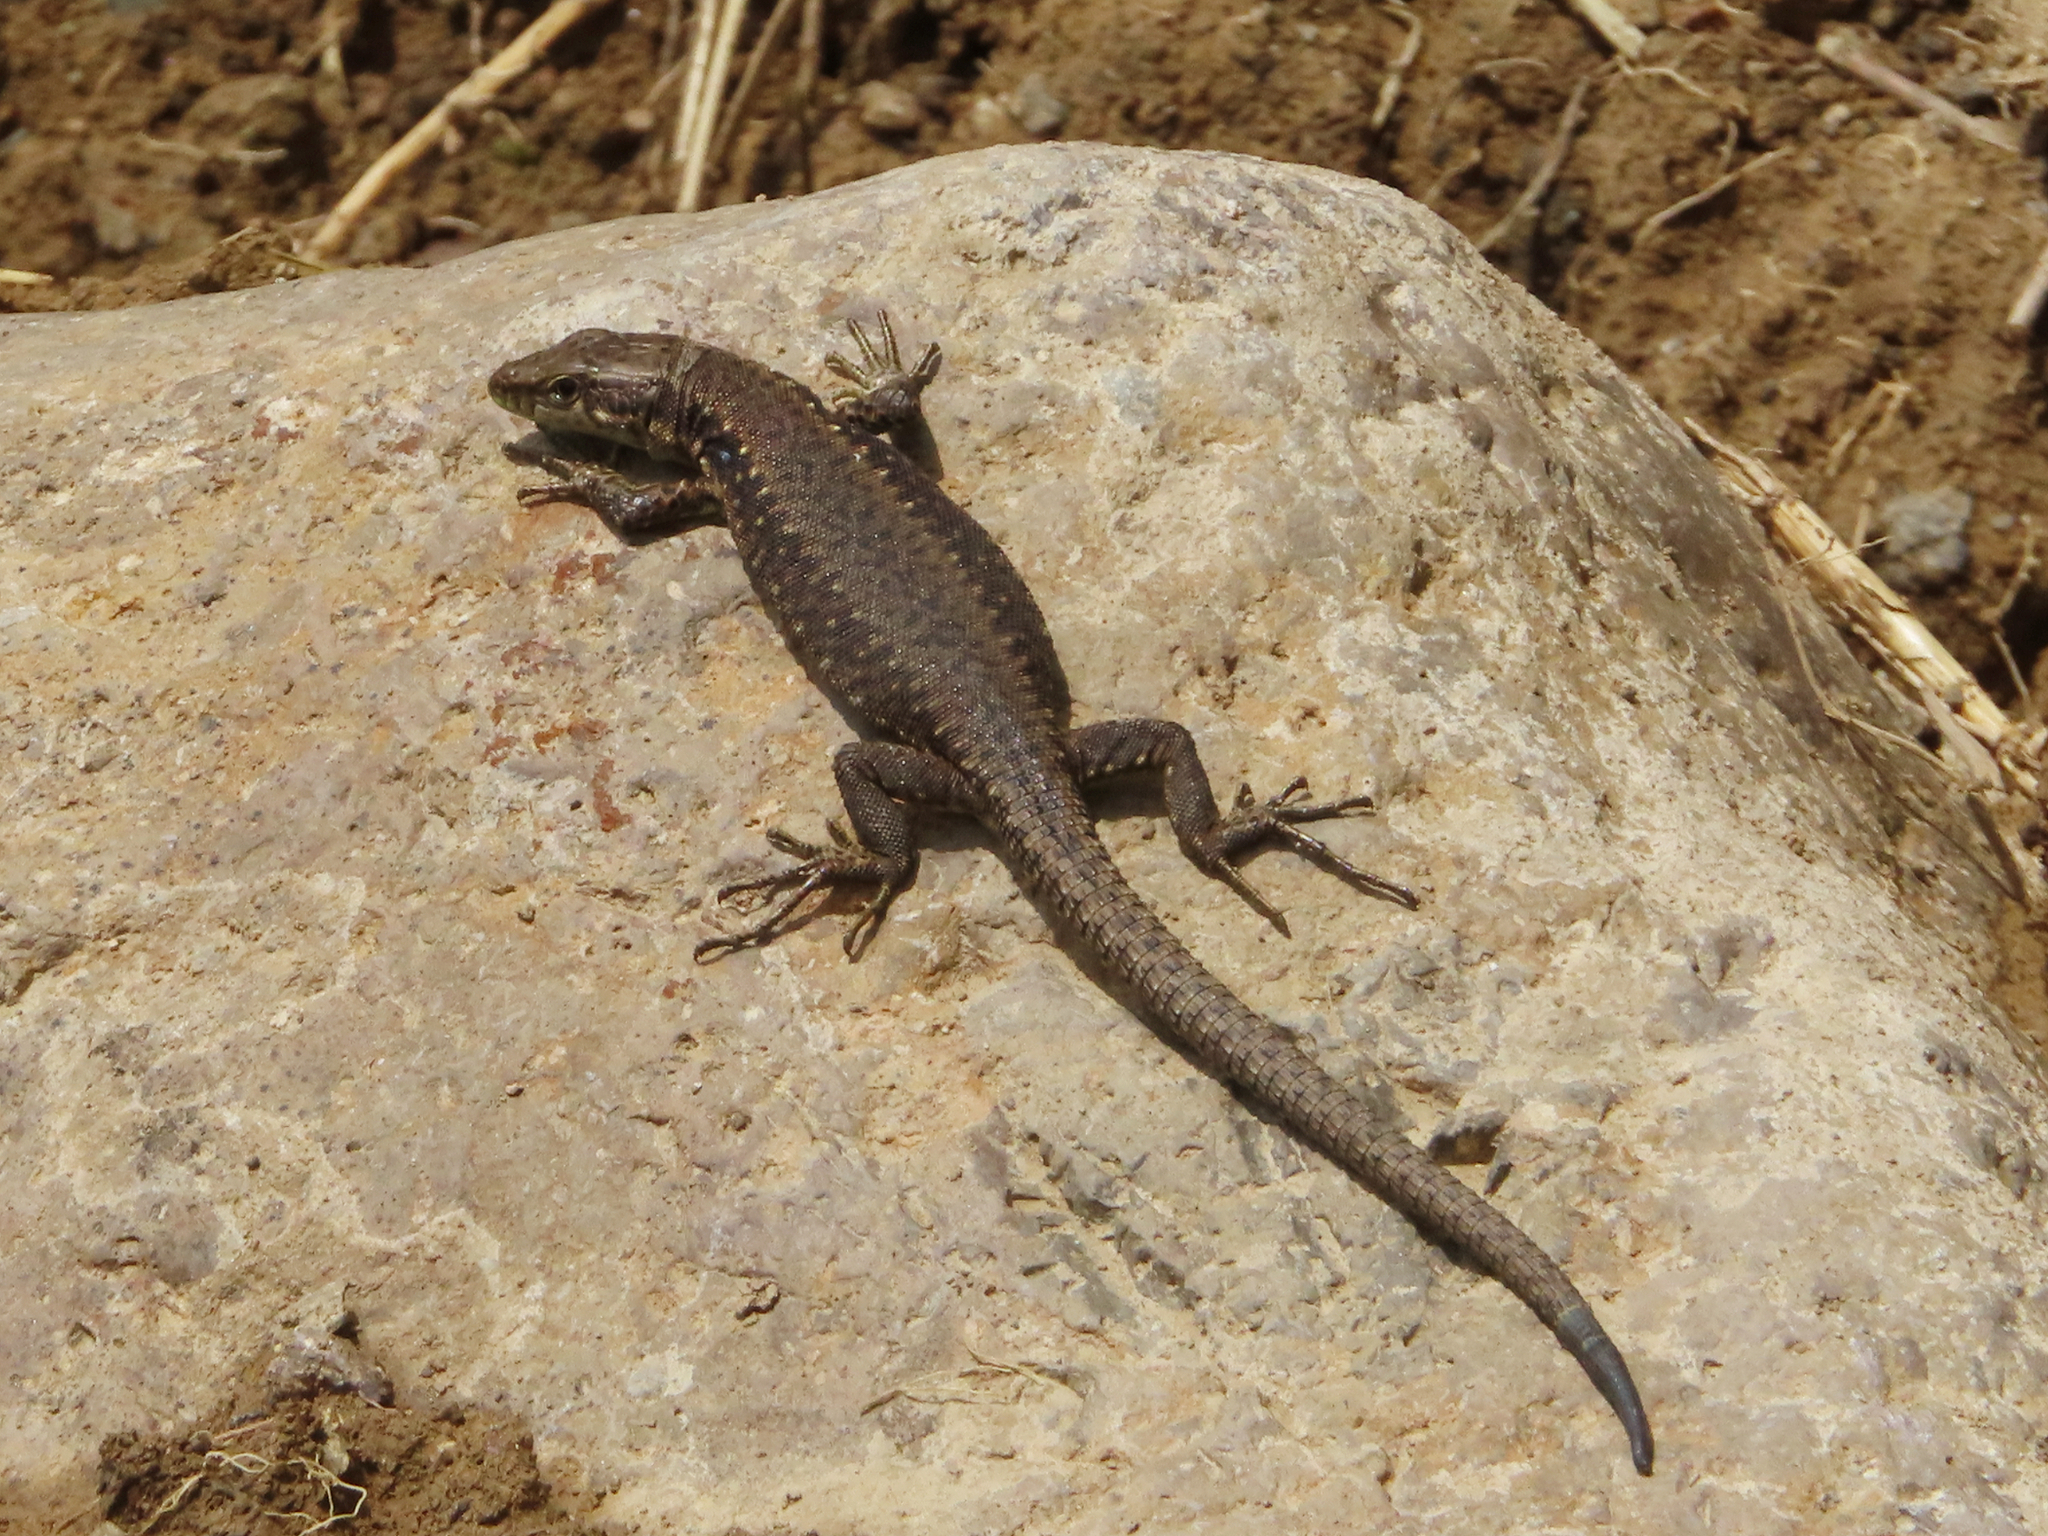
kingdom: Animalia
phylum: Chordata
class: Squamata
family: Lacertidae
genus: Darevskia
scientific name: Darevskia armeniaca
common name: Armenian lizard
